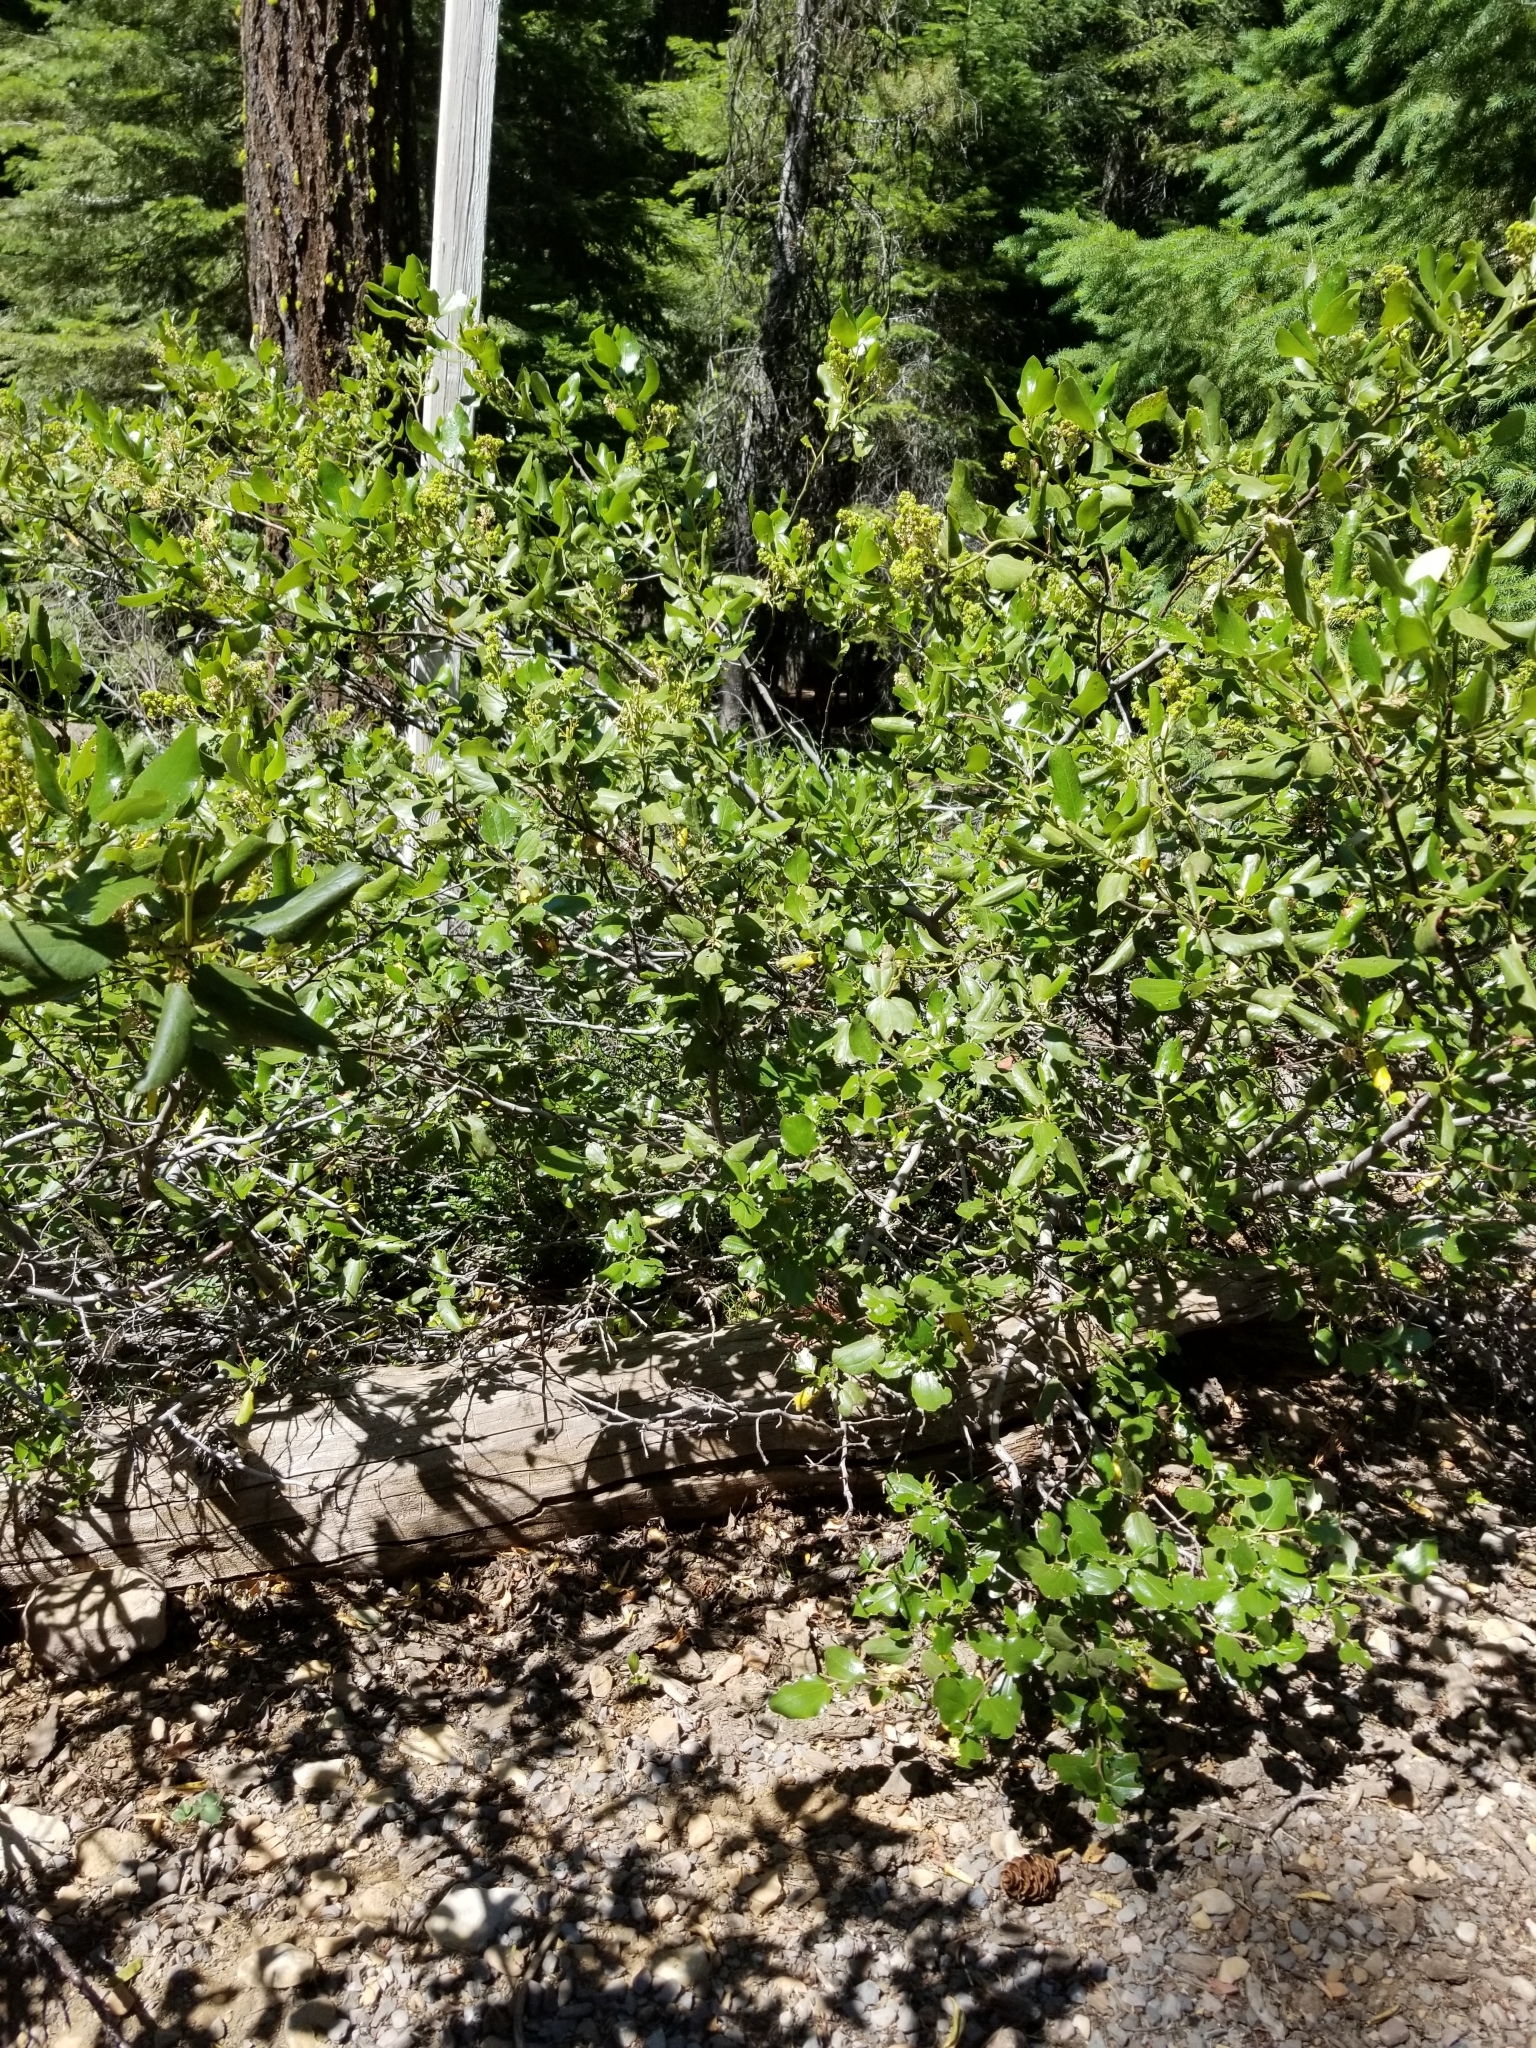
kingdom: Plantae
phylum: Tracheophyta
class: Magnoliopsida
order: Rosales
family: Rhamnaceae
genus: Ceanothus
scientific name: Ceanothus velutinus
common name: Snowbrush
